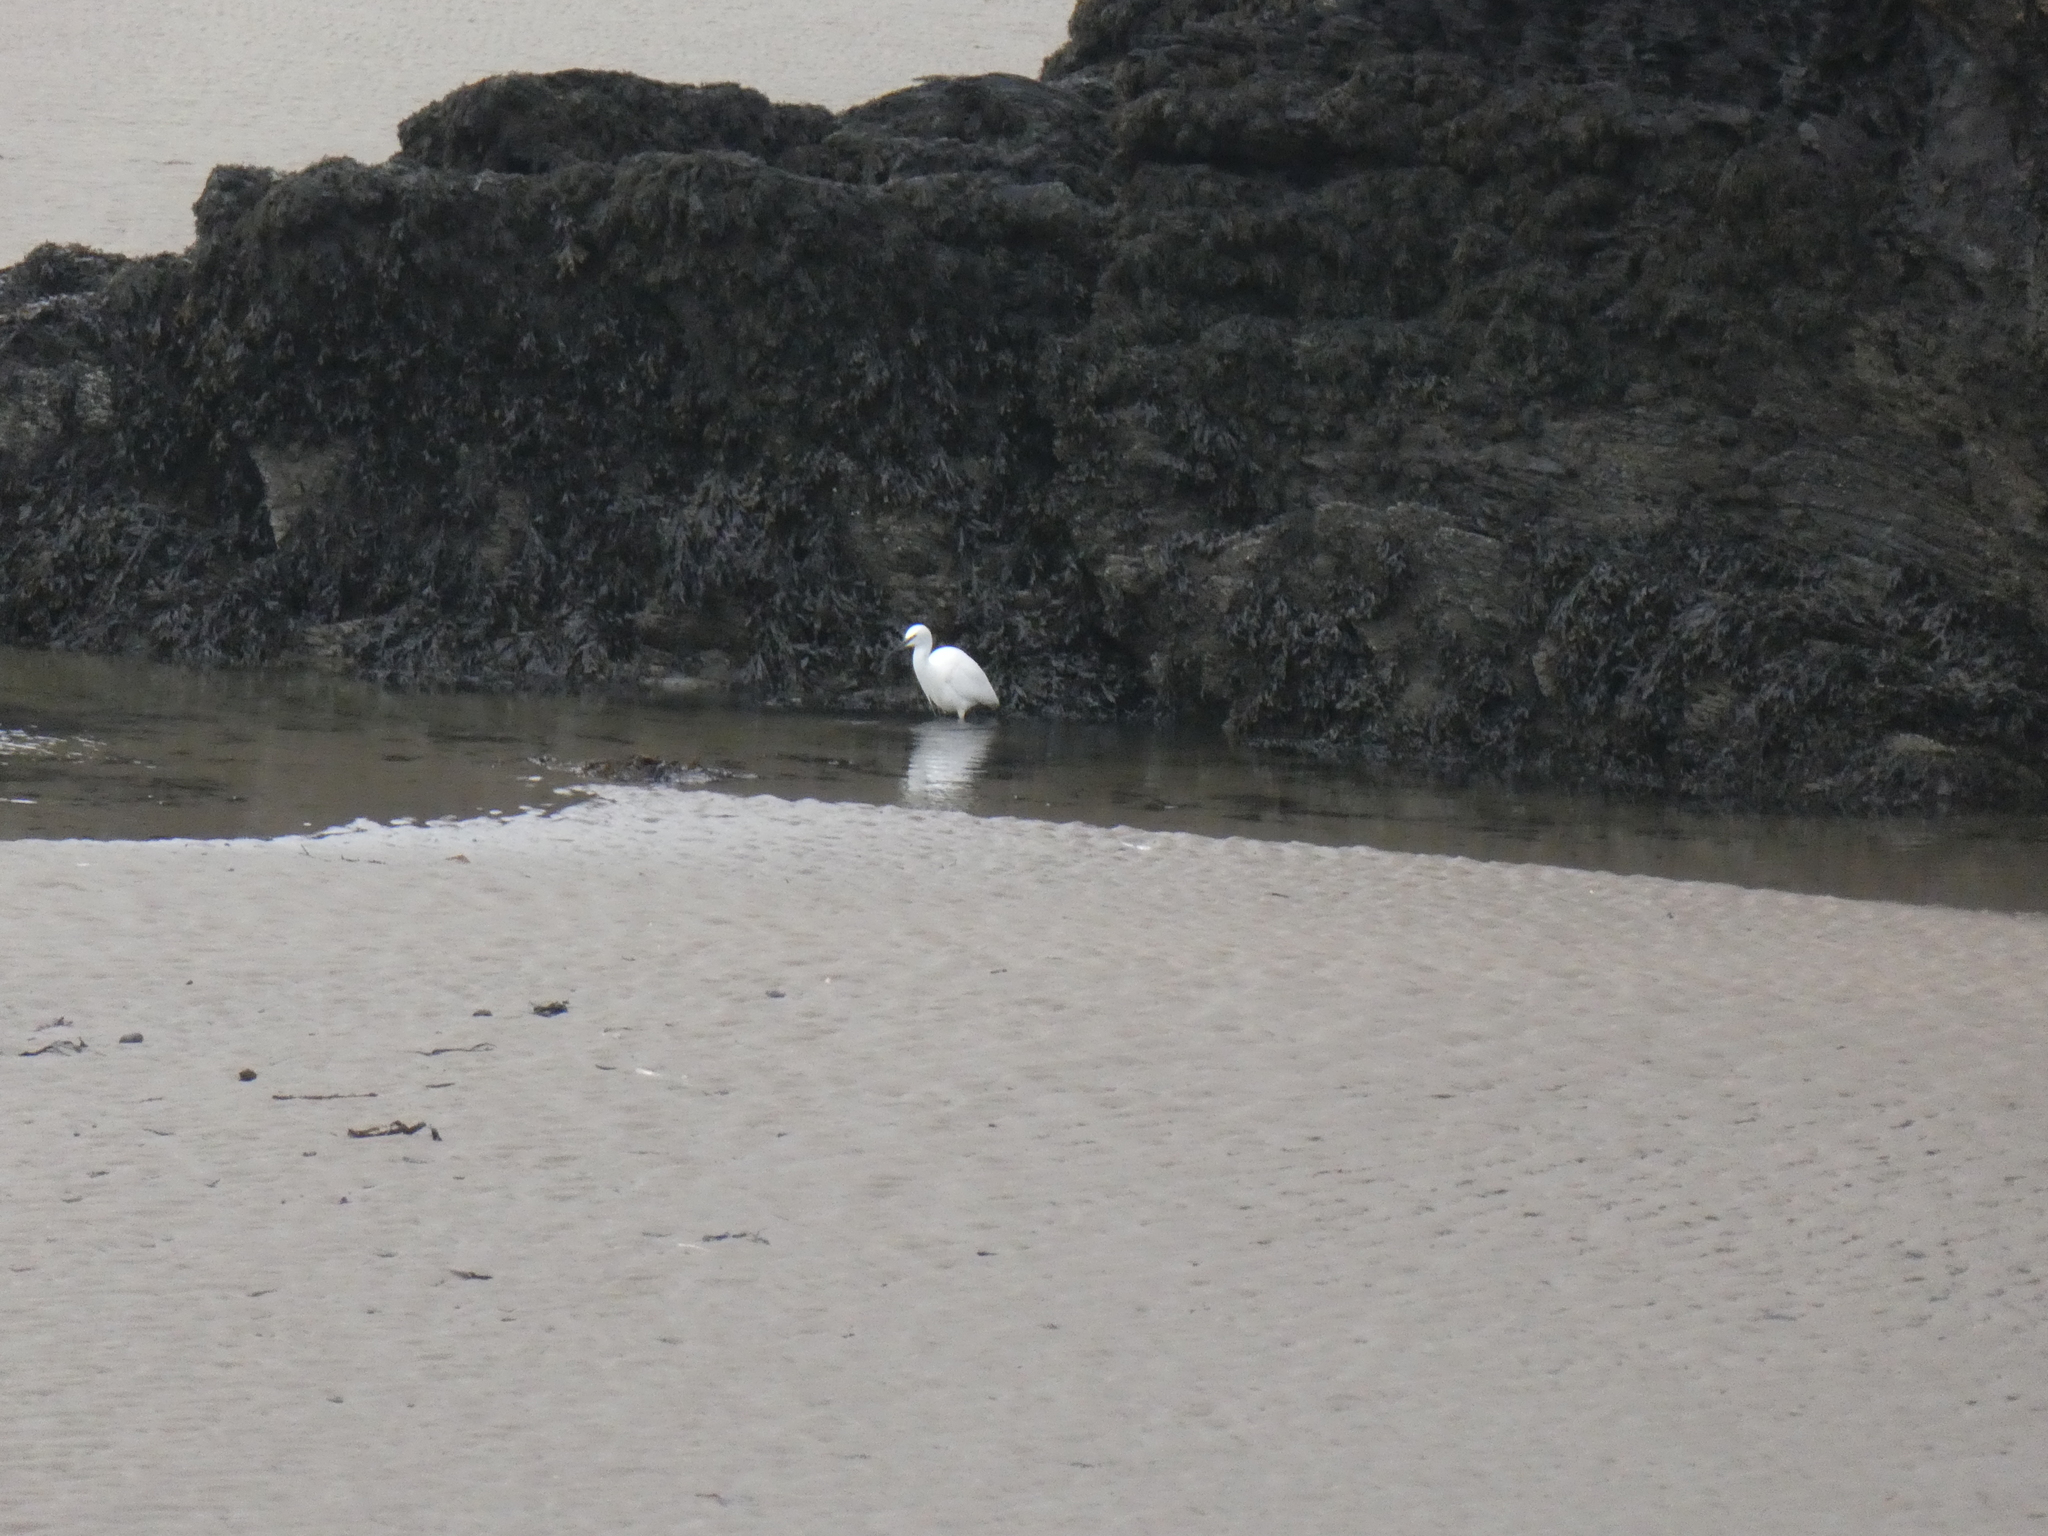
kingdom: Animalia
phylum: Chordata
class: Aves
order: Pelecaniformes
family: Ardeidae
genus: Egretta
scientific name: Egretta garzetta
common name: Little egret
